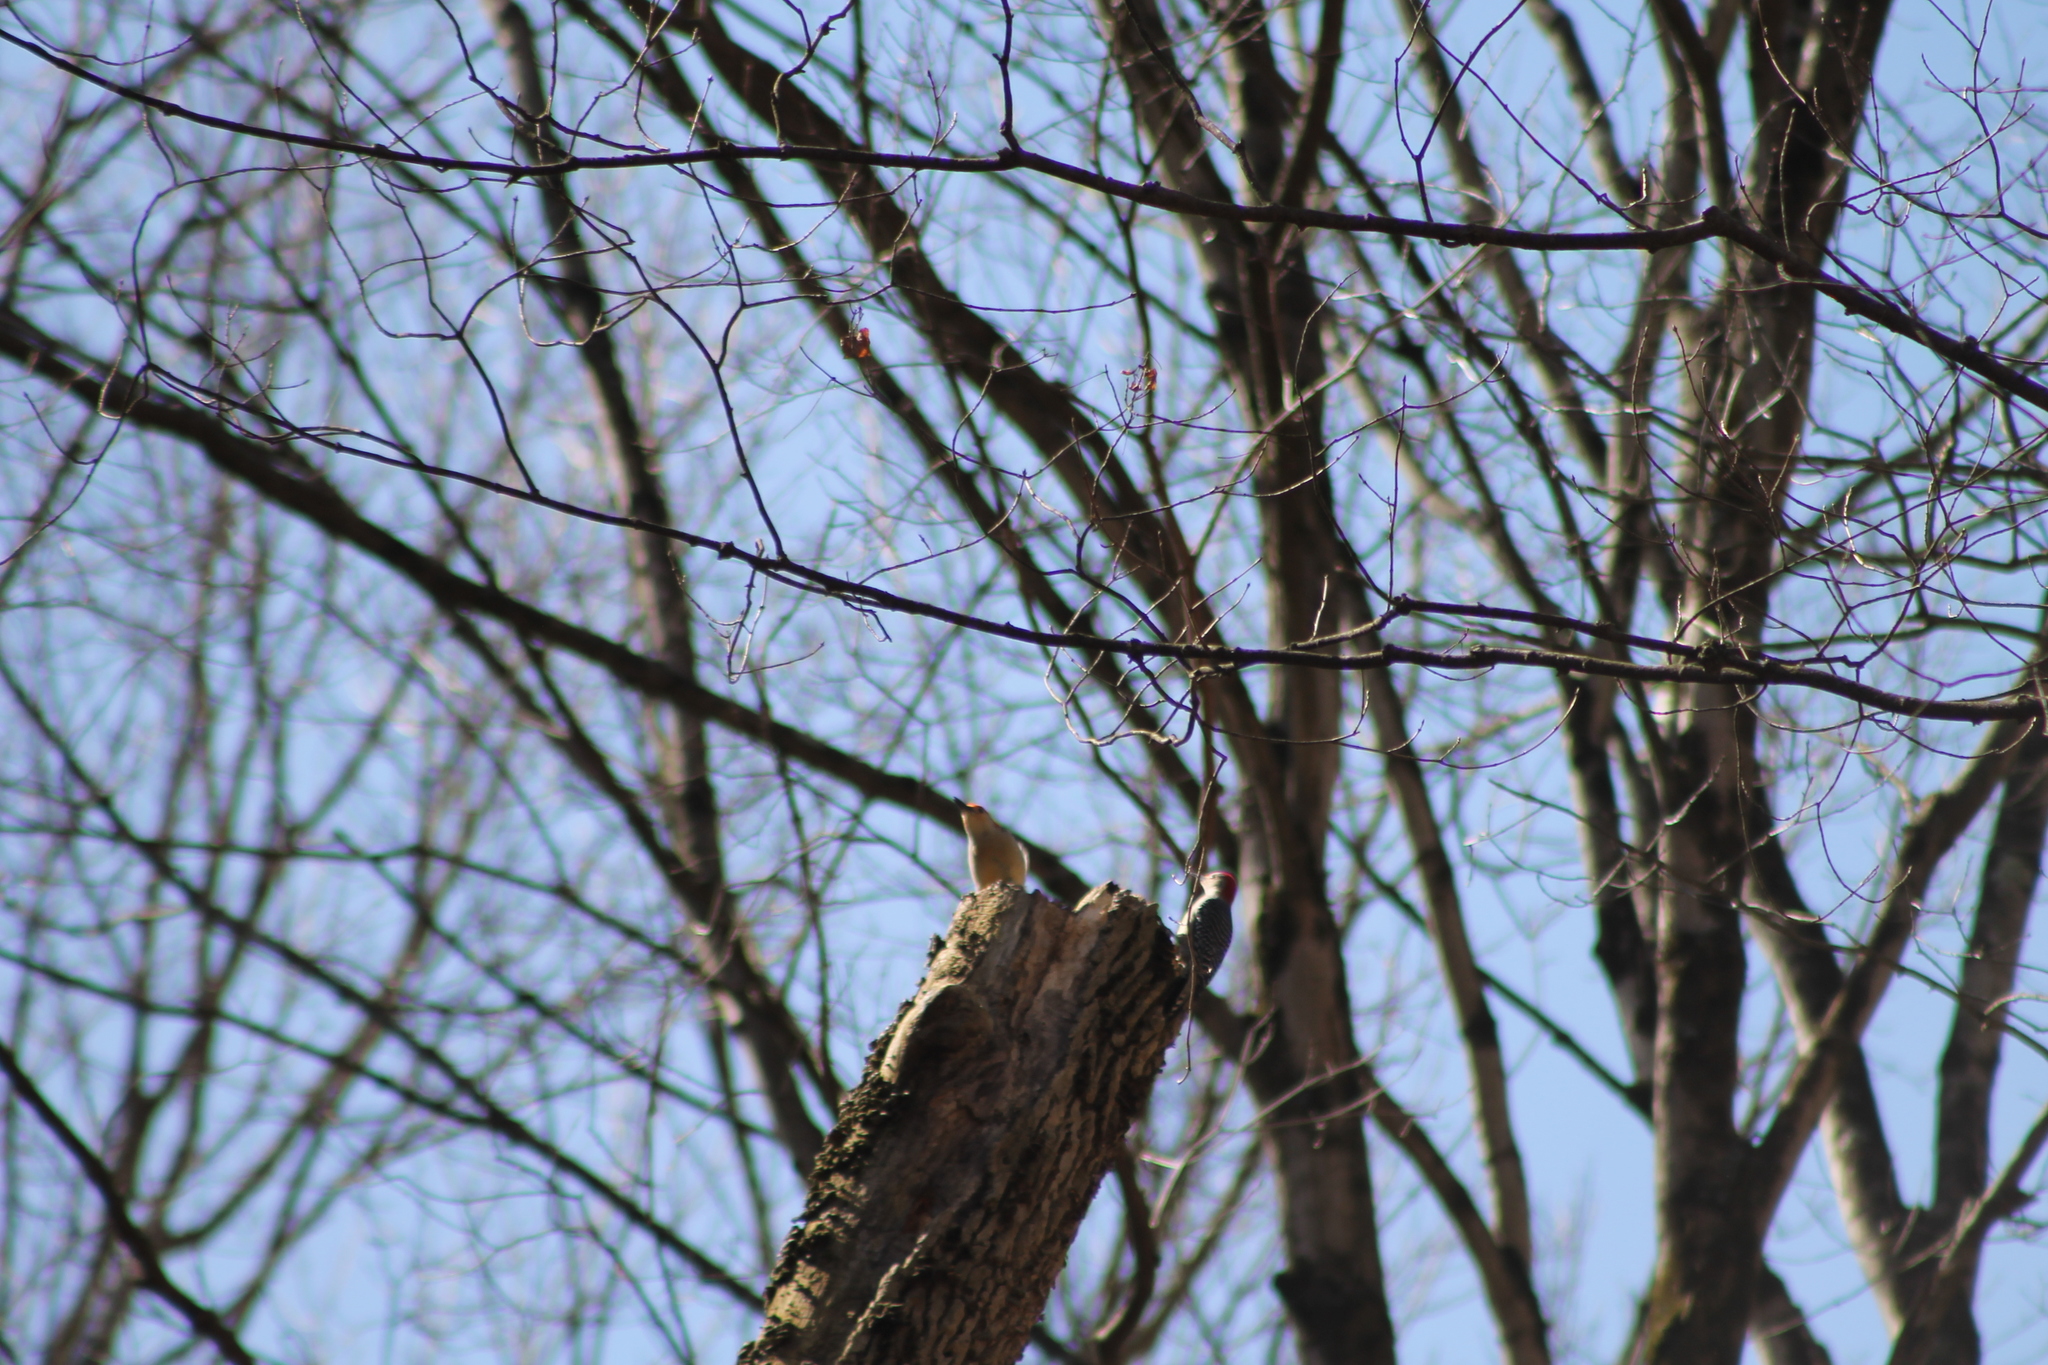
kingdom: Animalia
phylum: Chordata
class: Aves
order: Piciformes
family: Picidae
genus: Melanerpes
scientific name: Melanerpes carolinus
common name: Red-bellied woodpecker
